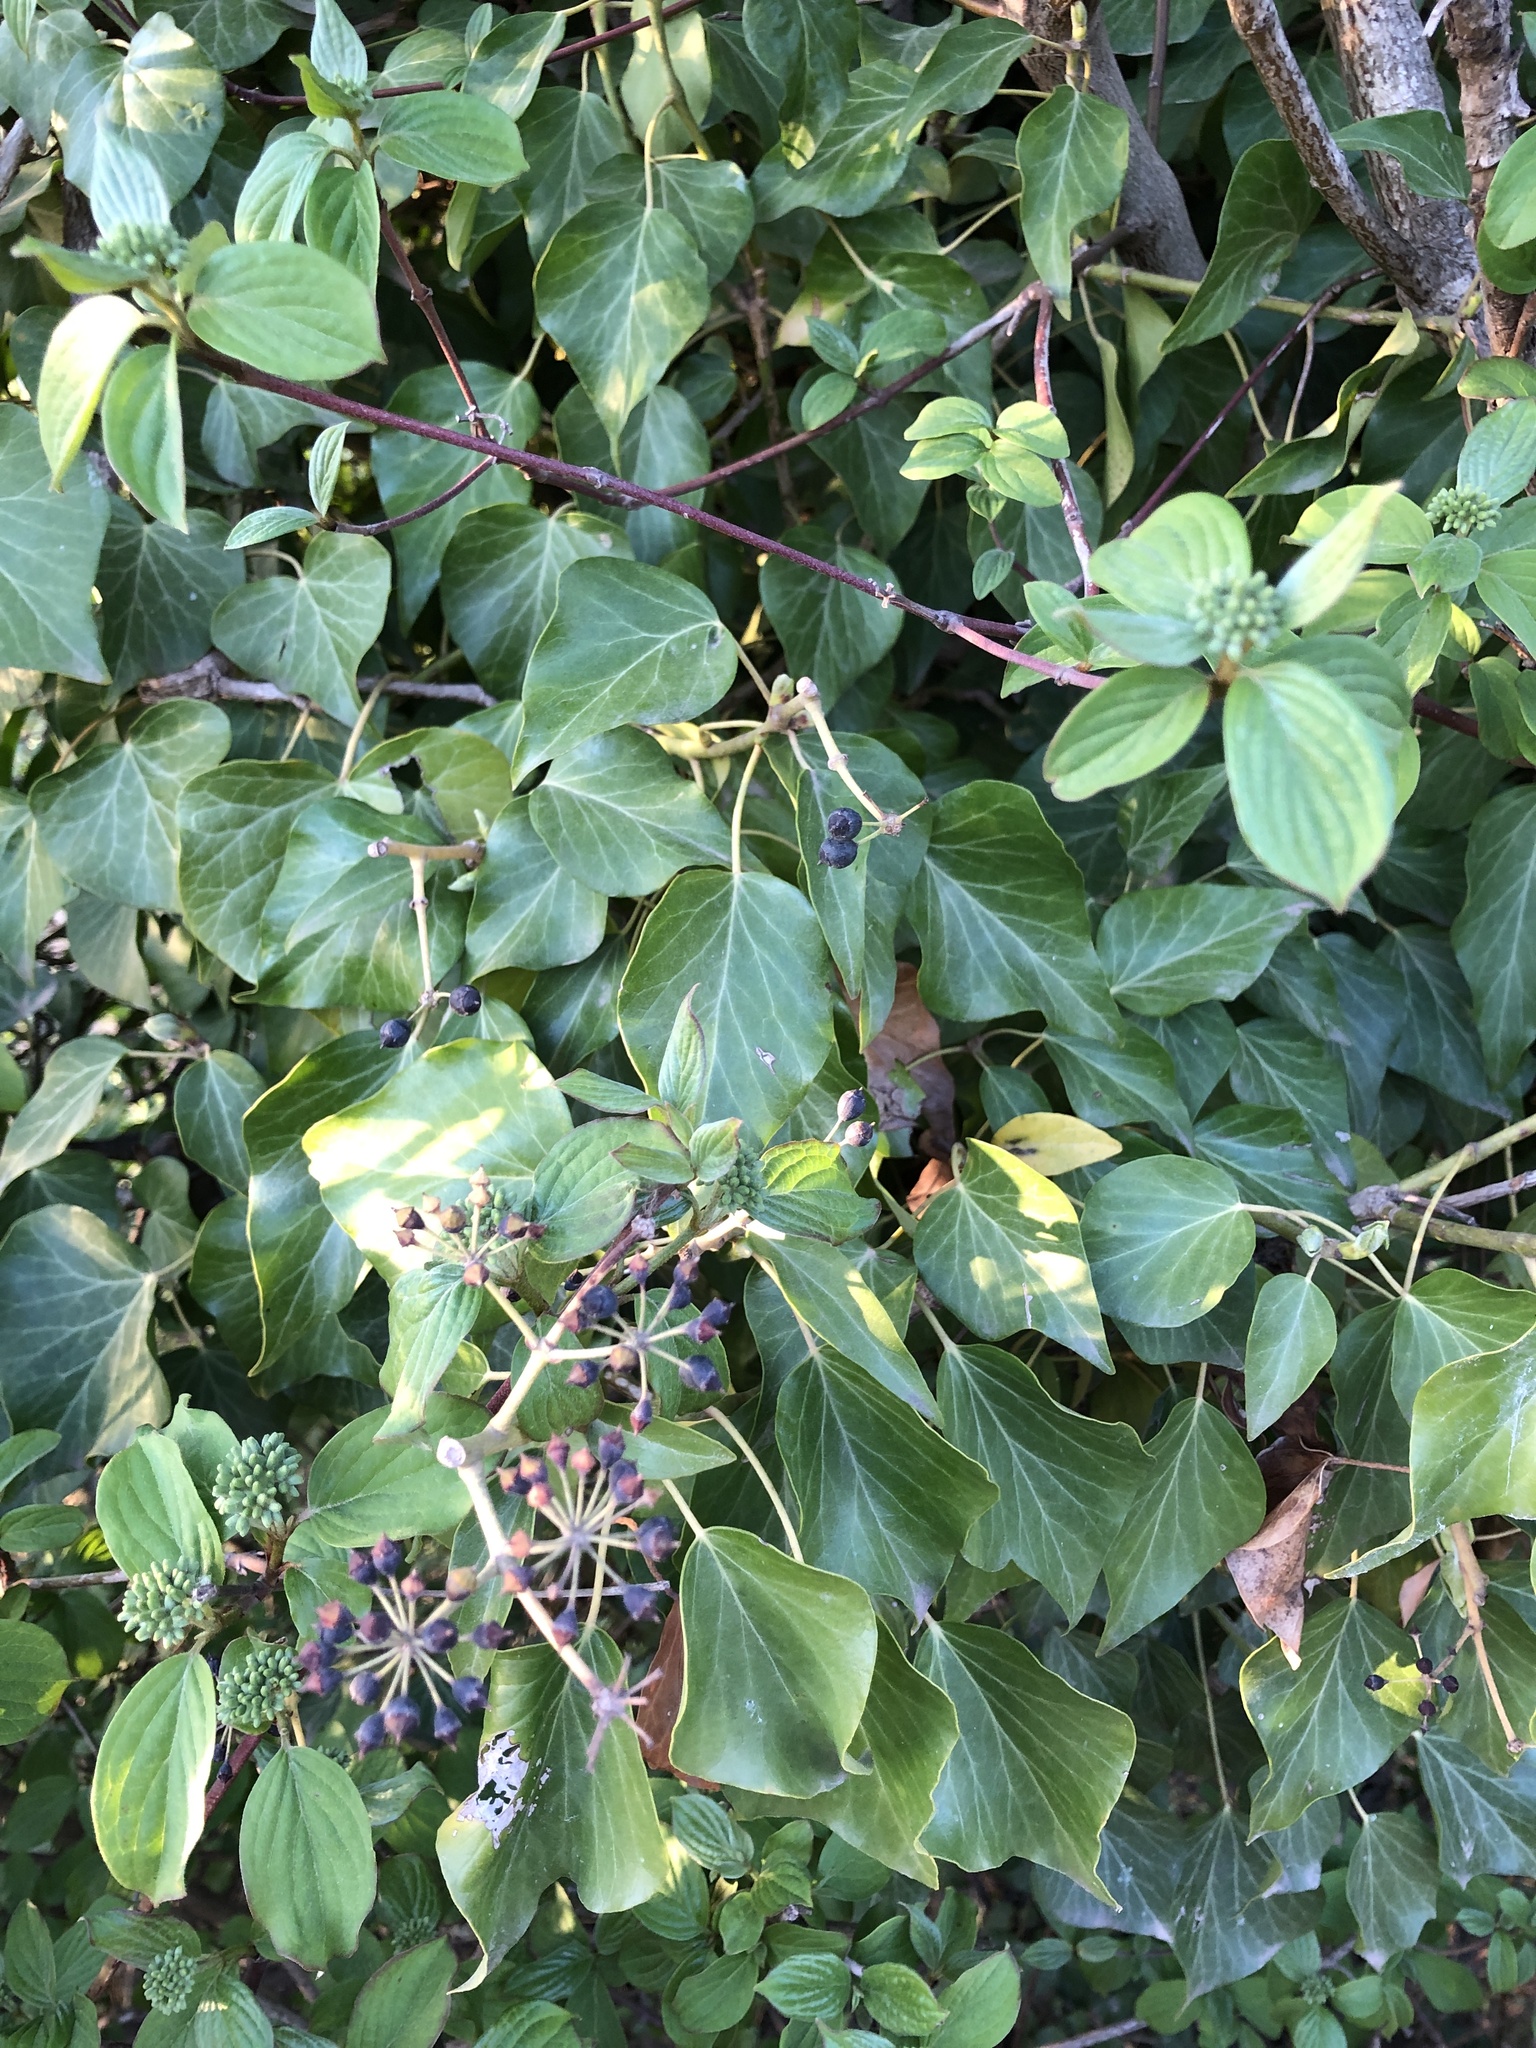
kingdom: Plantae
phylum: Tracheophyta
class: Magnoliopsida
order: Apiales
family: Araliaceae
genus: Hedera
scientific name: Hedera helix
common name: Ivy
